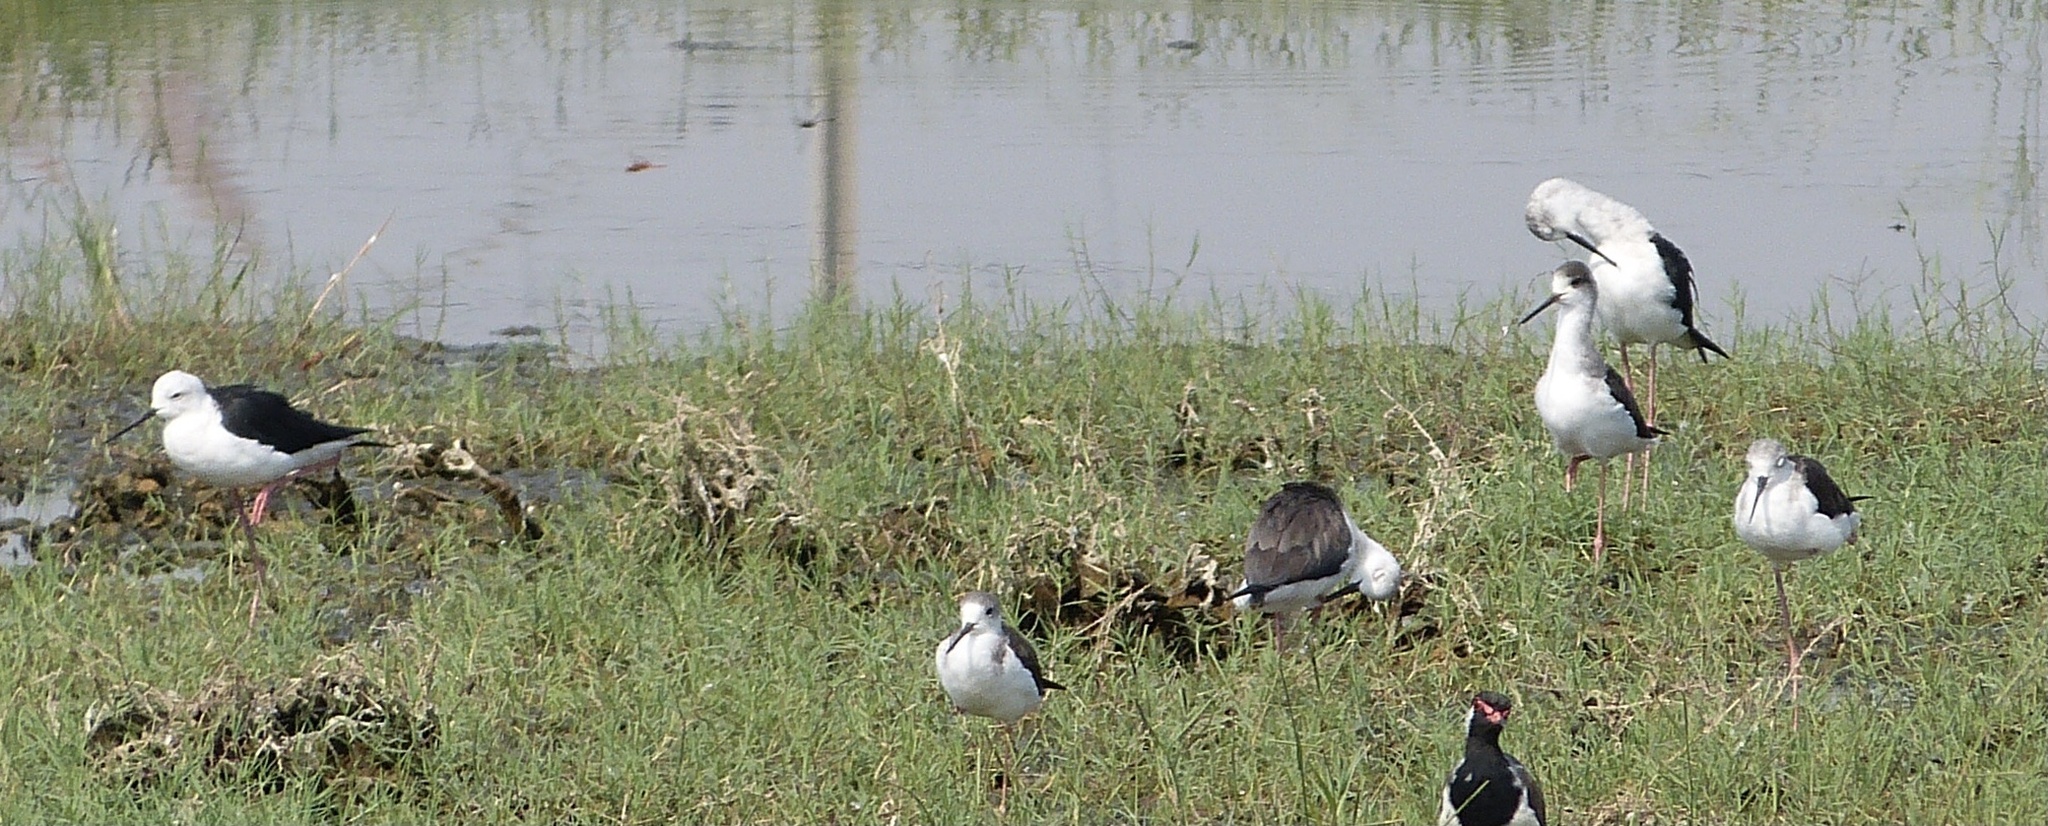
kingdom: Animalia
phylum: Chordata
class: Aves
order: Charadriiformes
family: Recurvirostridae
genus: Himantopus
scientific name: Himantopus himantopus
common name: Black-winged stilt
